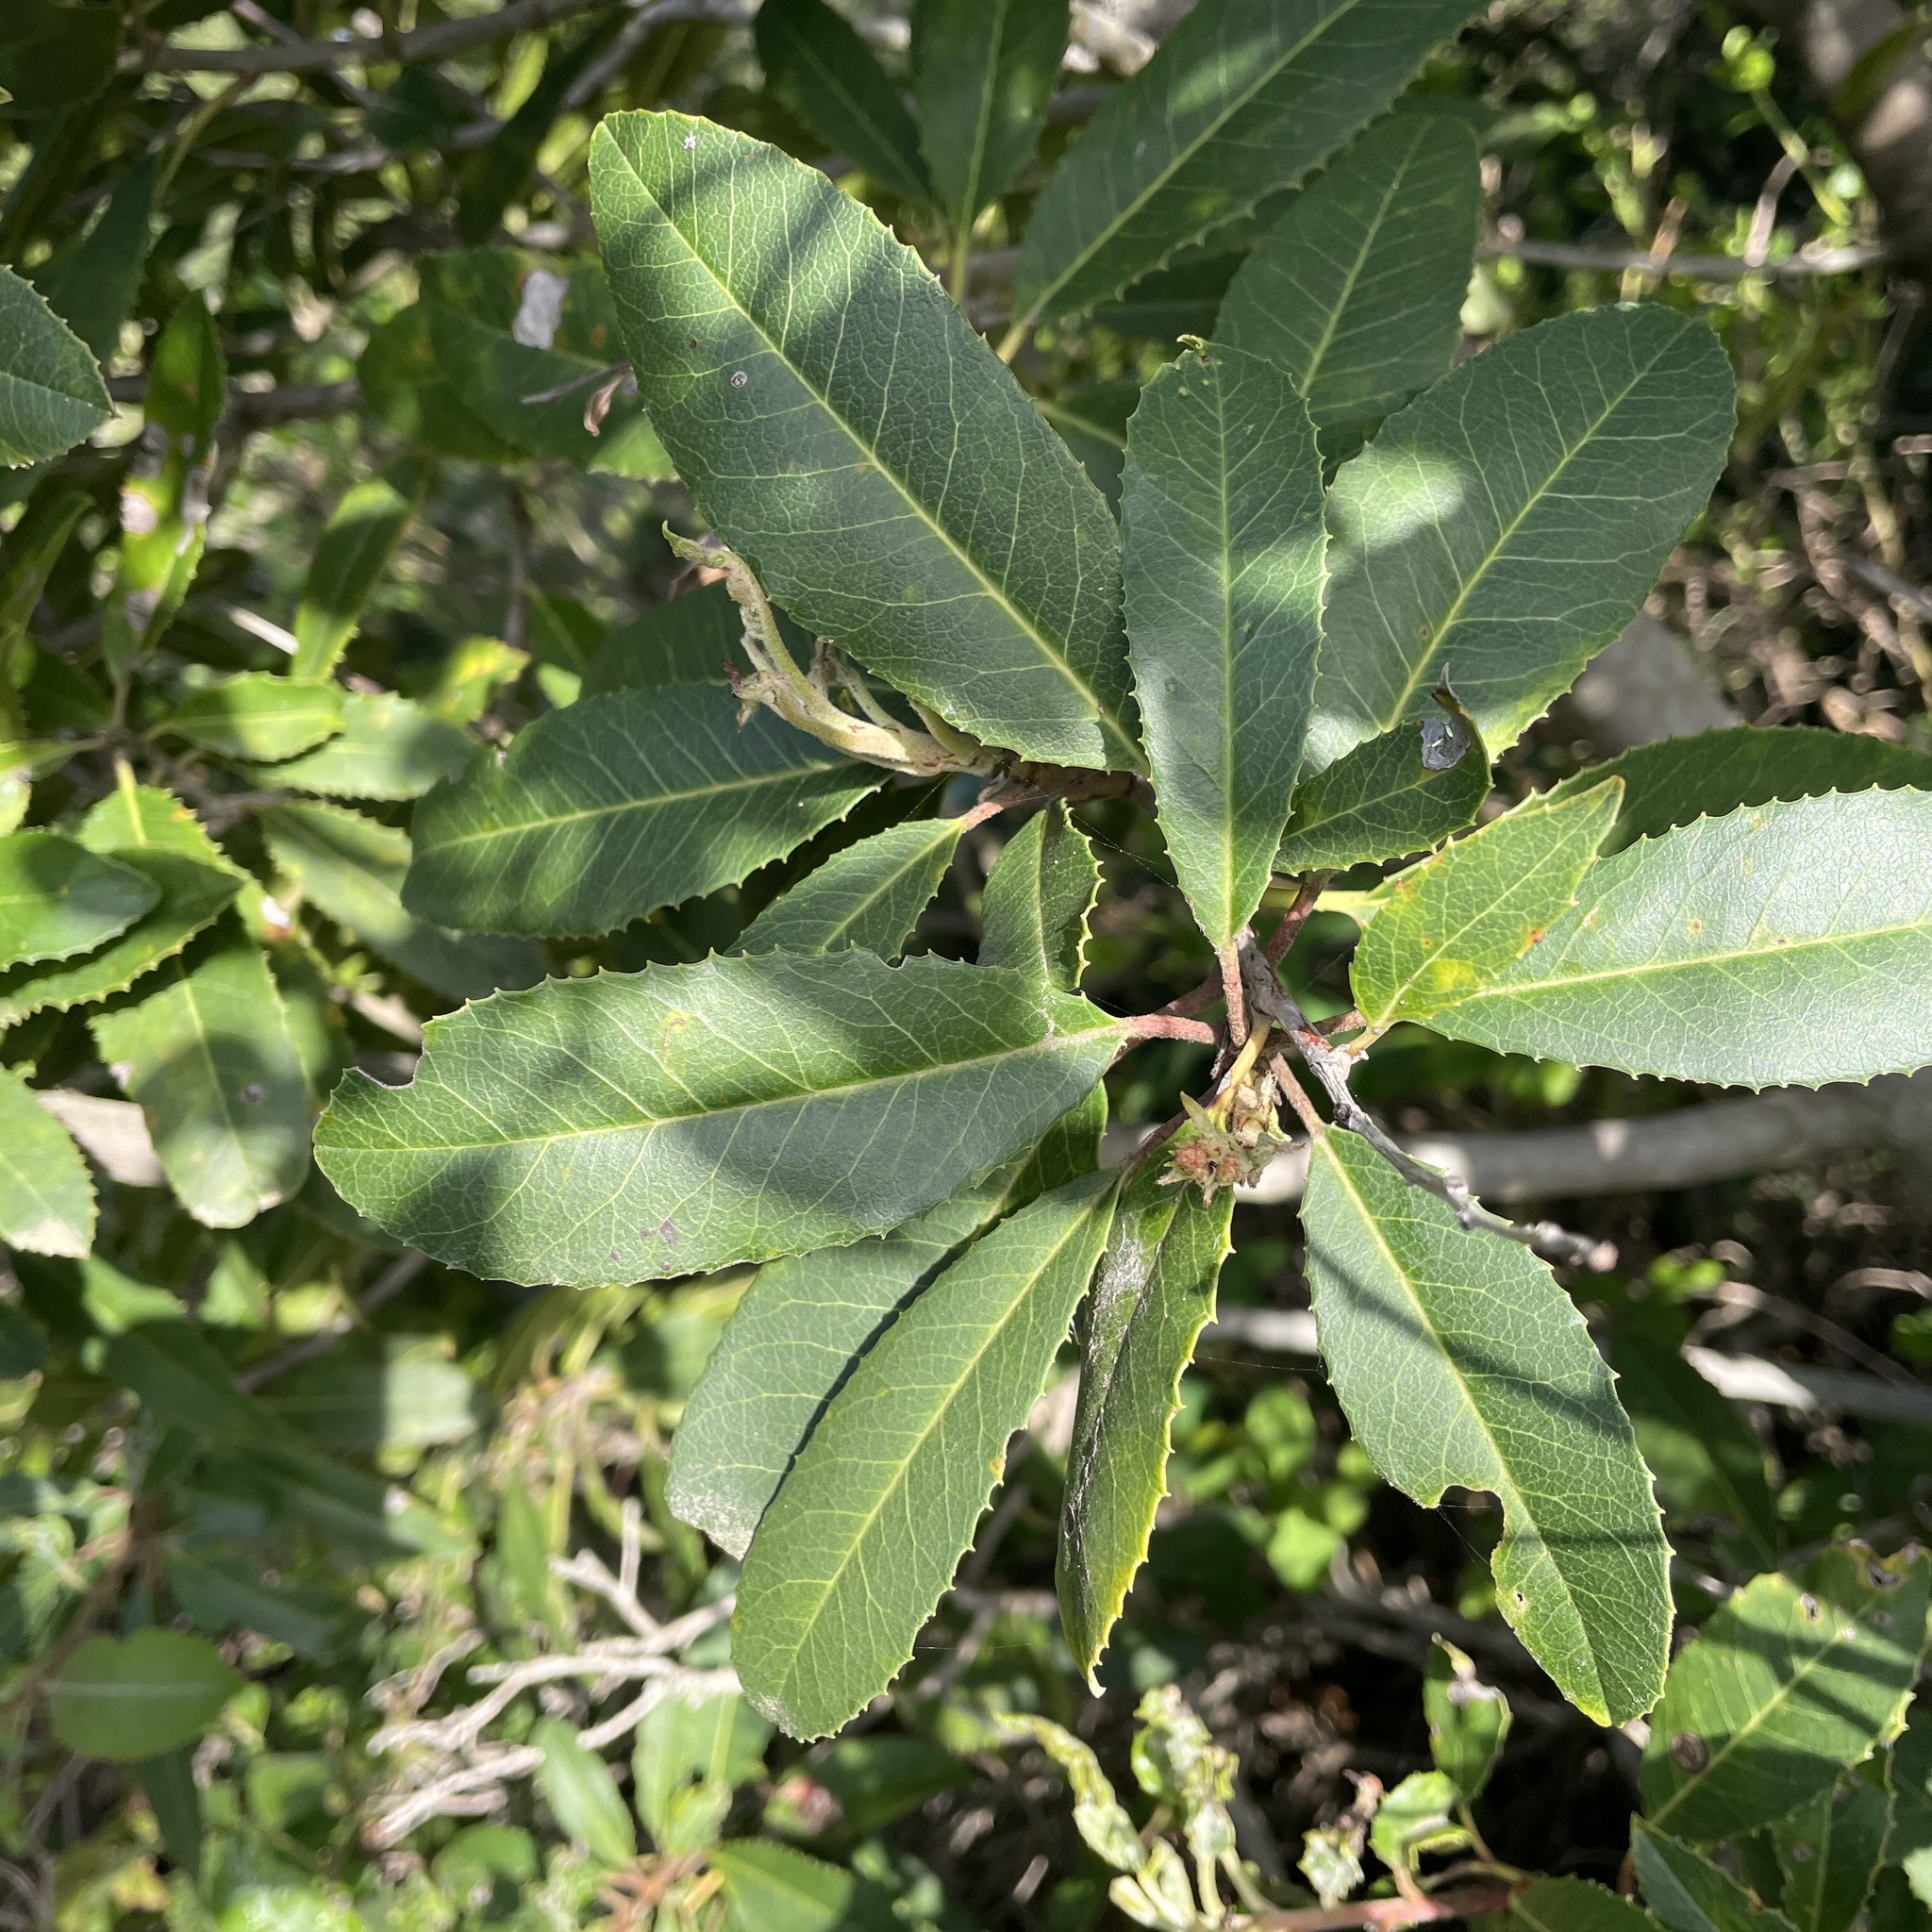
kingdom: Plantae
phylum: Tracheophyta
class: Magnoliopsida
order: Rosales
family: Rosaceae
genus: Heteromeles
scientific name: Heteromeles arbutifolia
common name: California-holly
